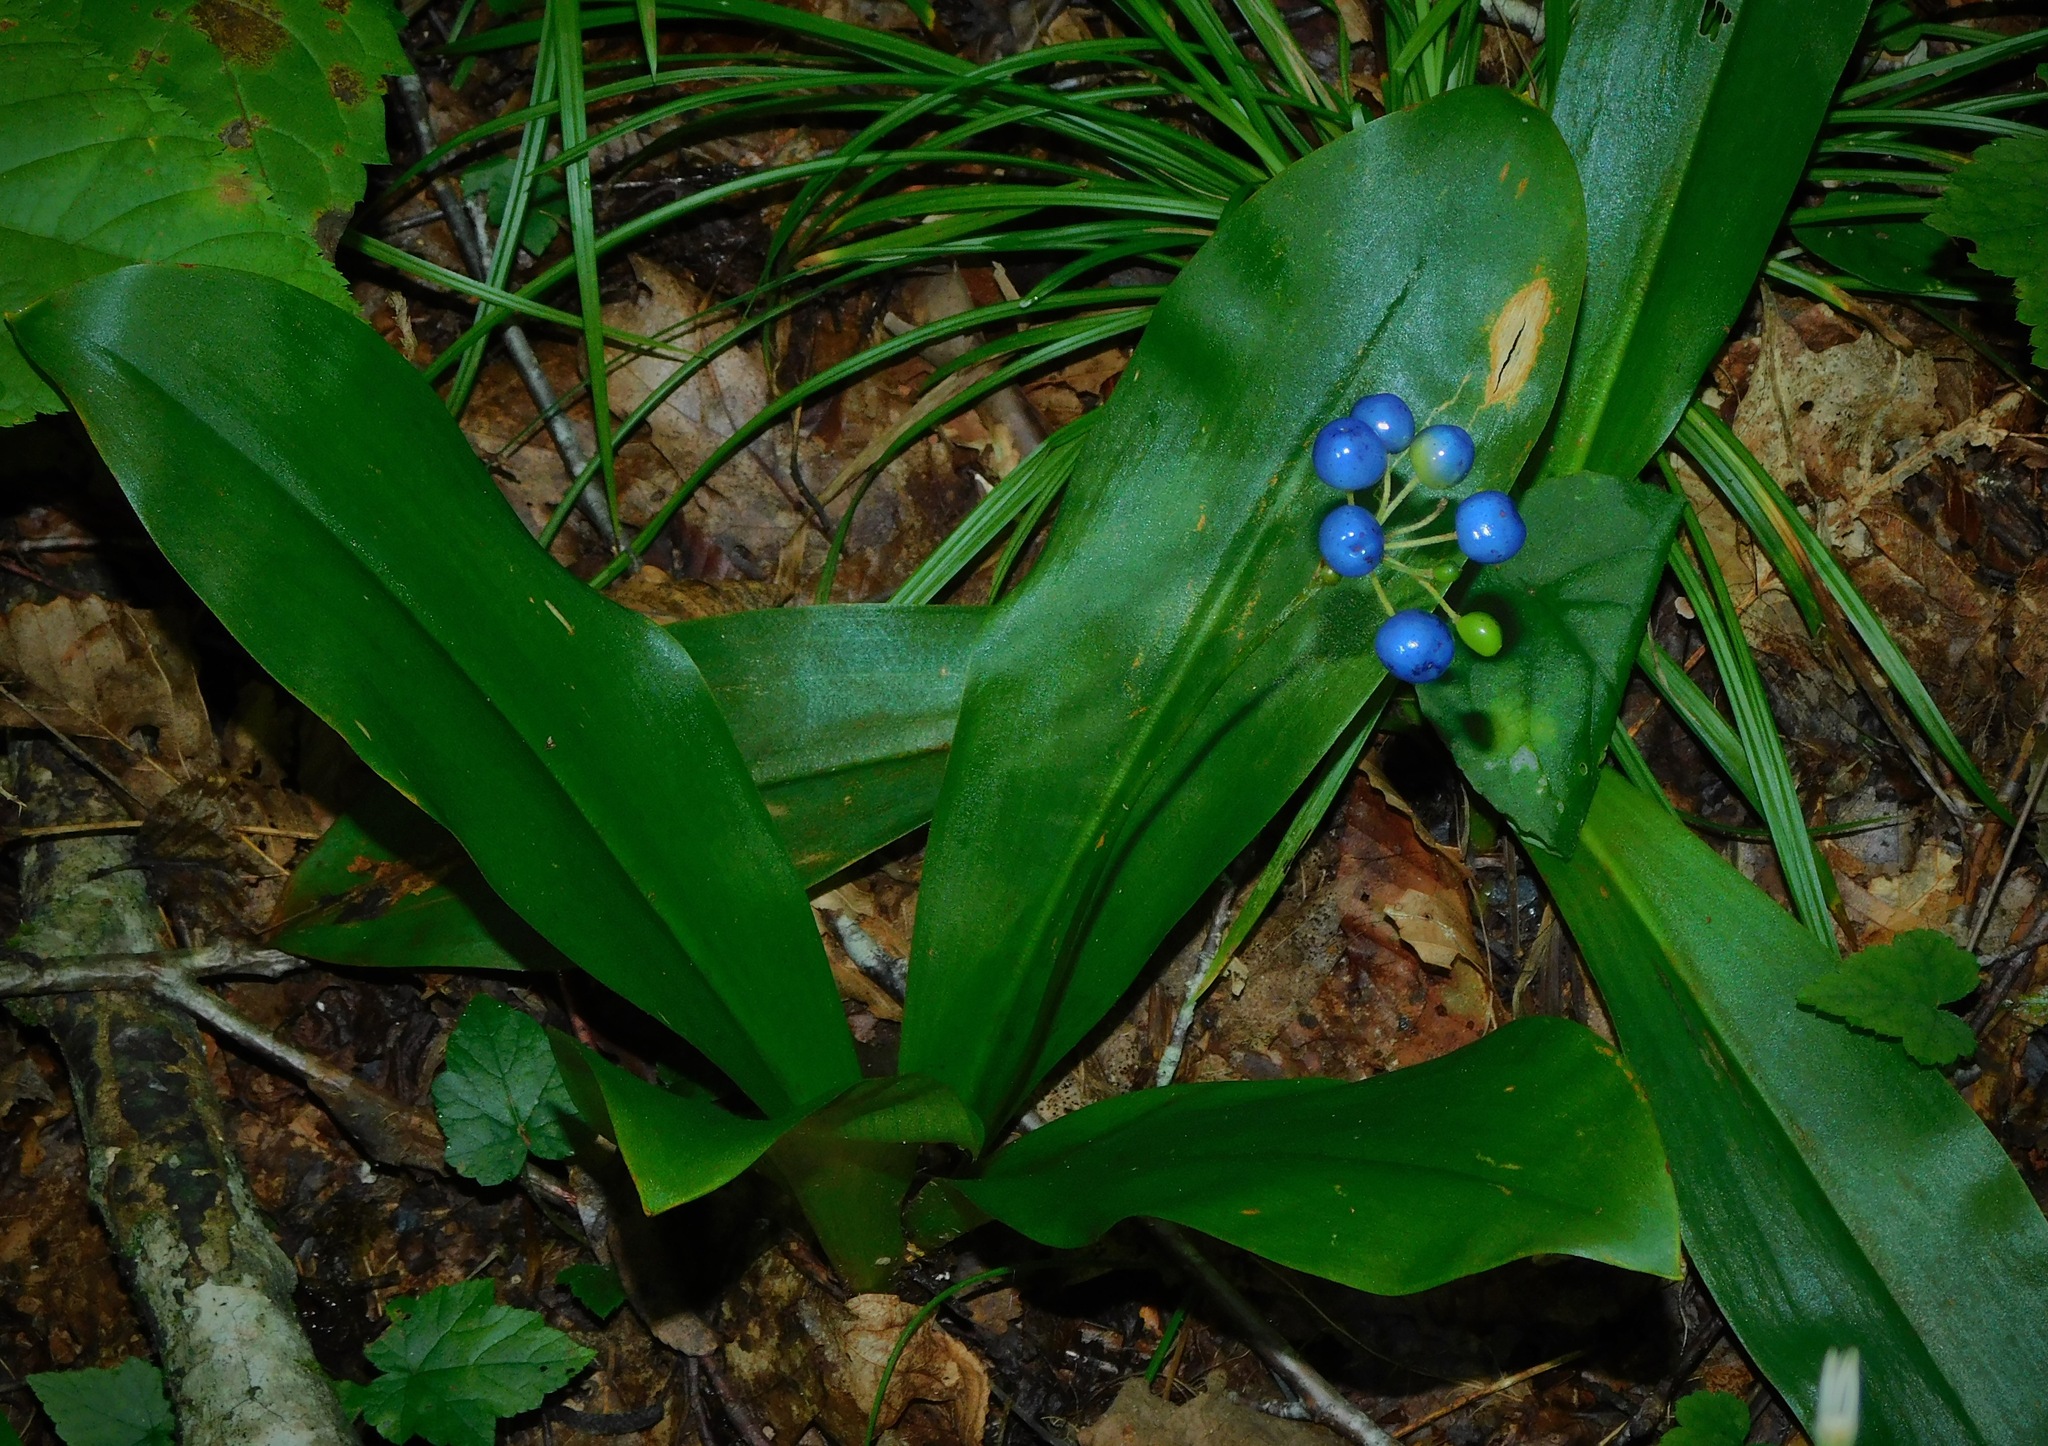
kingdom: Plantae
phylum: Tracheophyta
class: Liliopsida
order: Liliales
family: Liliaceae
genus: Clintonia
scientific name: Clintonia umbellulata
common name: Speckle wood-lily
